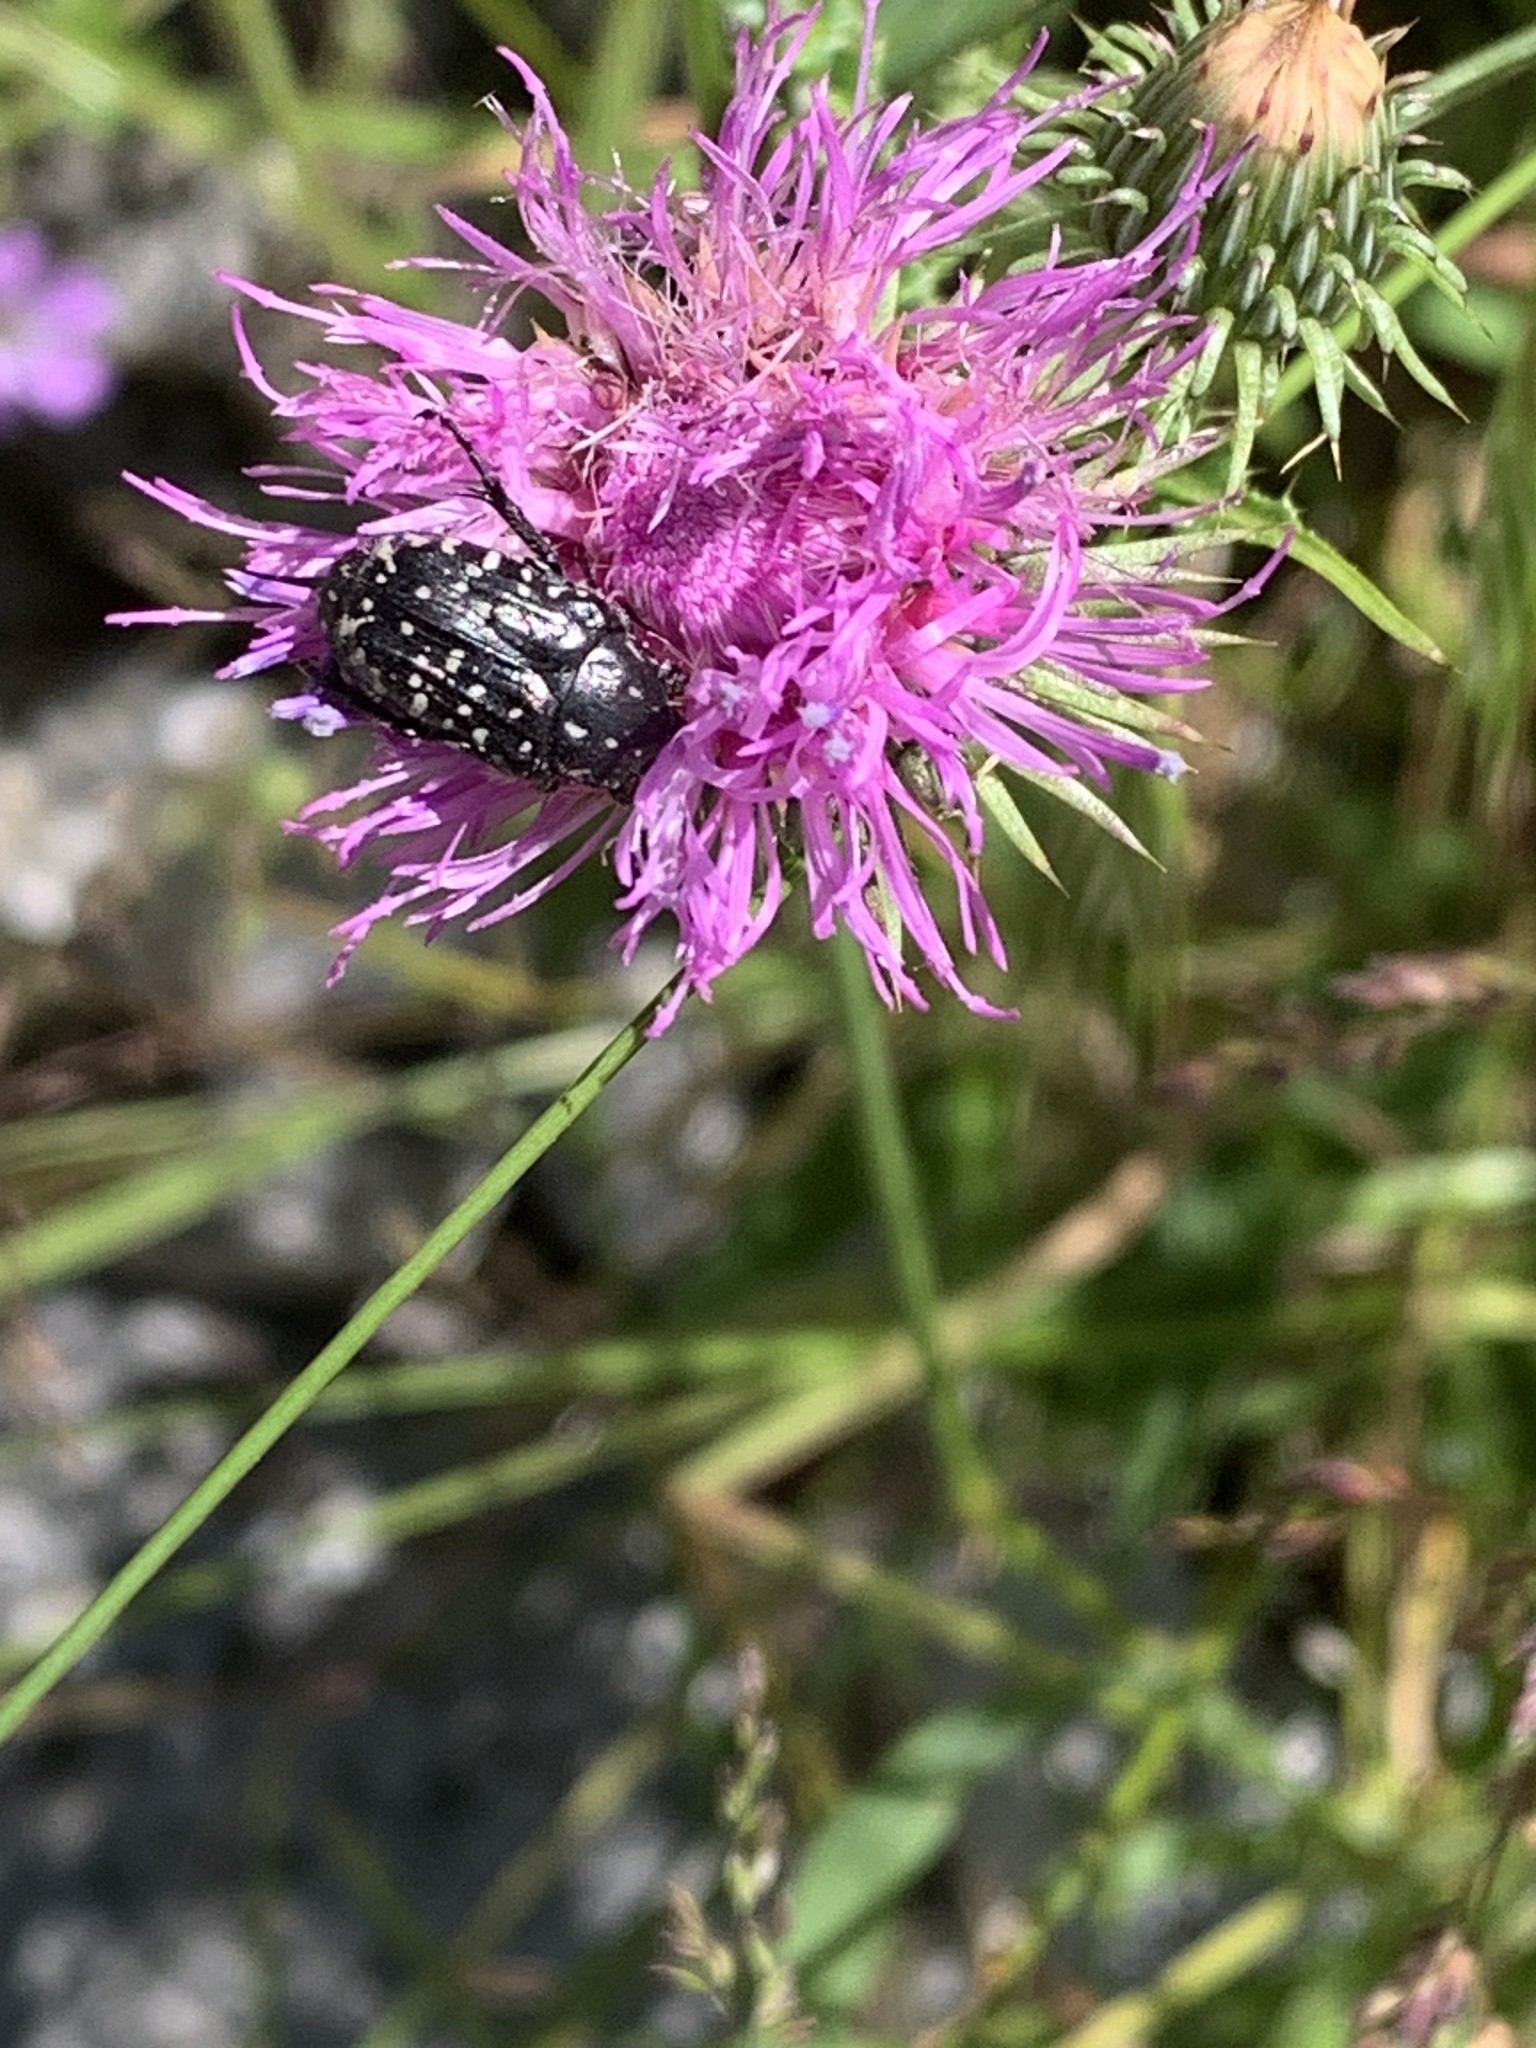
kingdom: Animalia
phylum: Arthropoda
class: Insecta
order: Coleoptera
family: Scarabaeidae
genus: Oxythyrea
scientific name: Oxythyrea funesta
